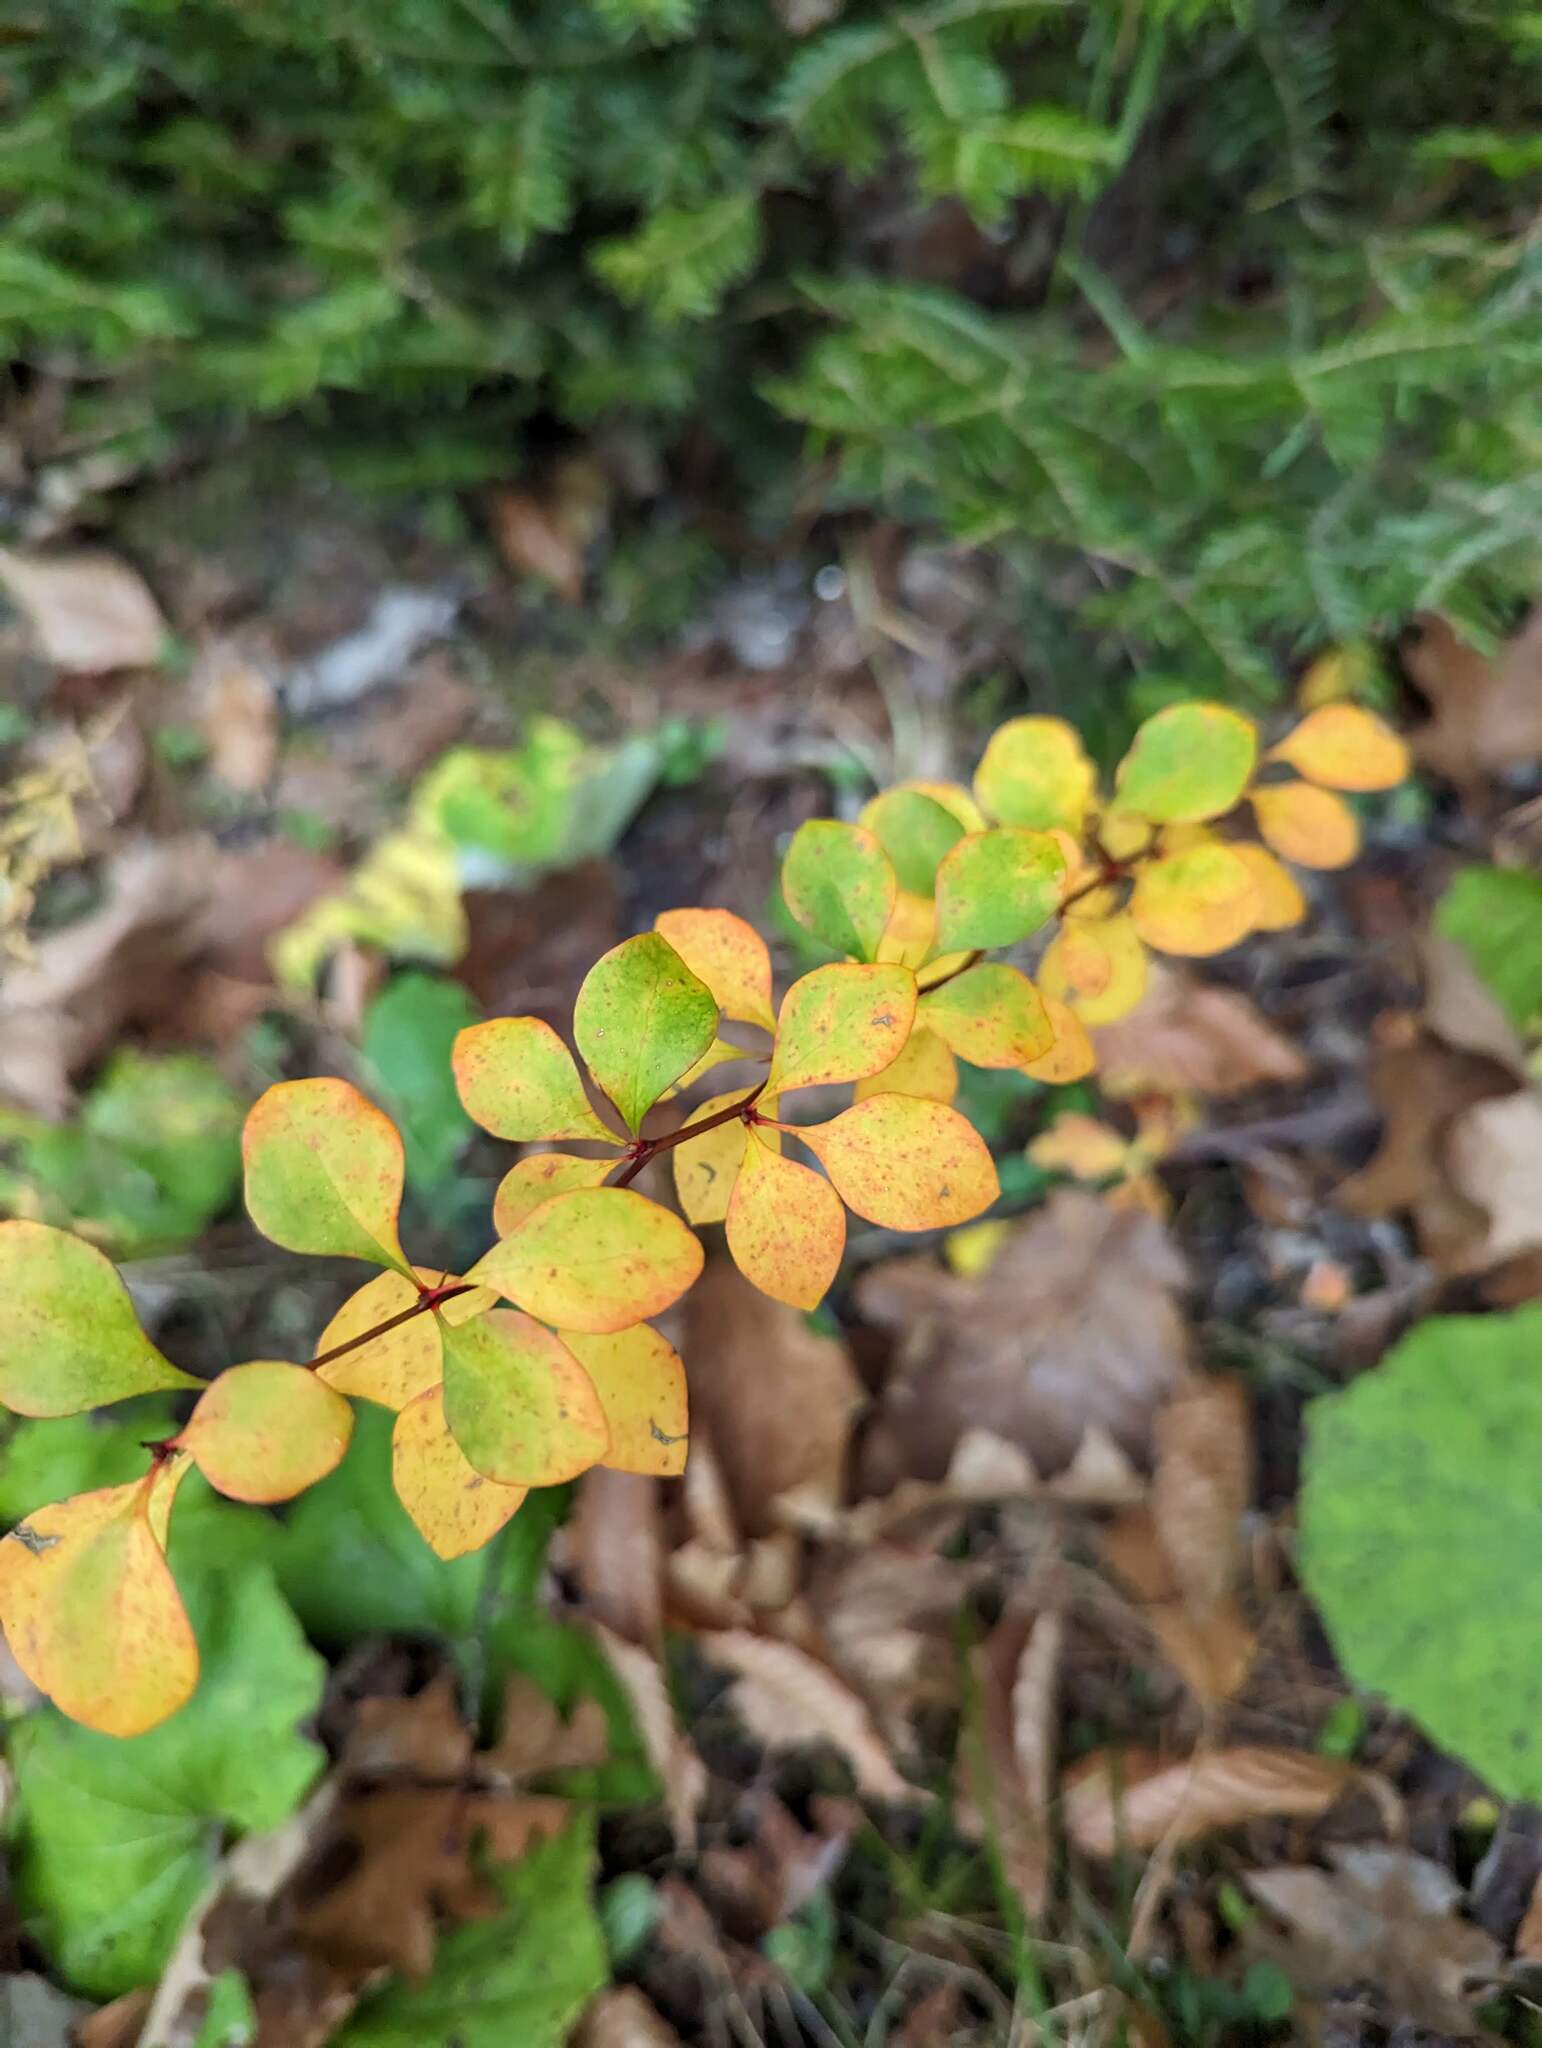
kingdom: Plantae
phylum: Tracheophyta
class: Magnoliopsida
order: Ranunculales
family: Berberidaceae
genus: Berberis
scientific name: Berberis thunbergii
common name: Japanese barberry
